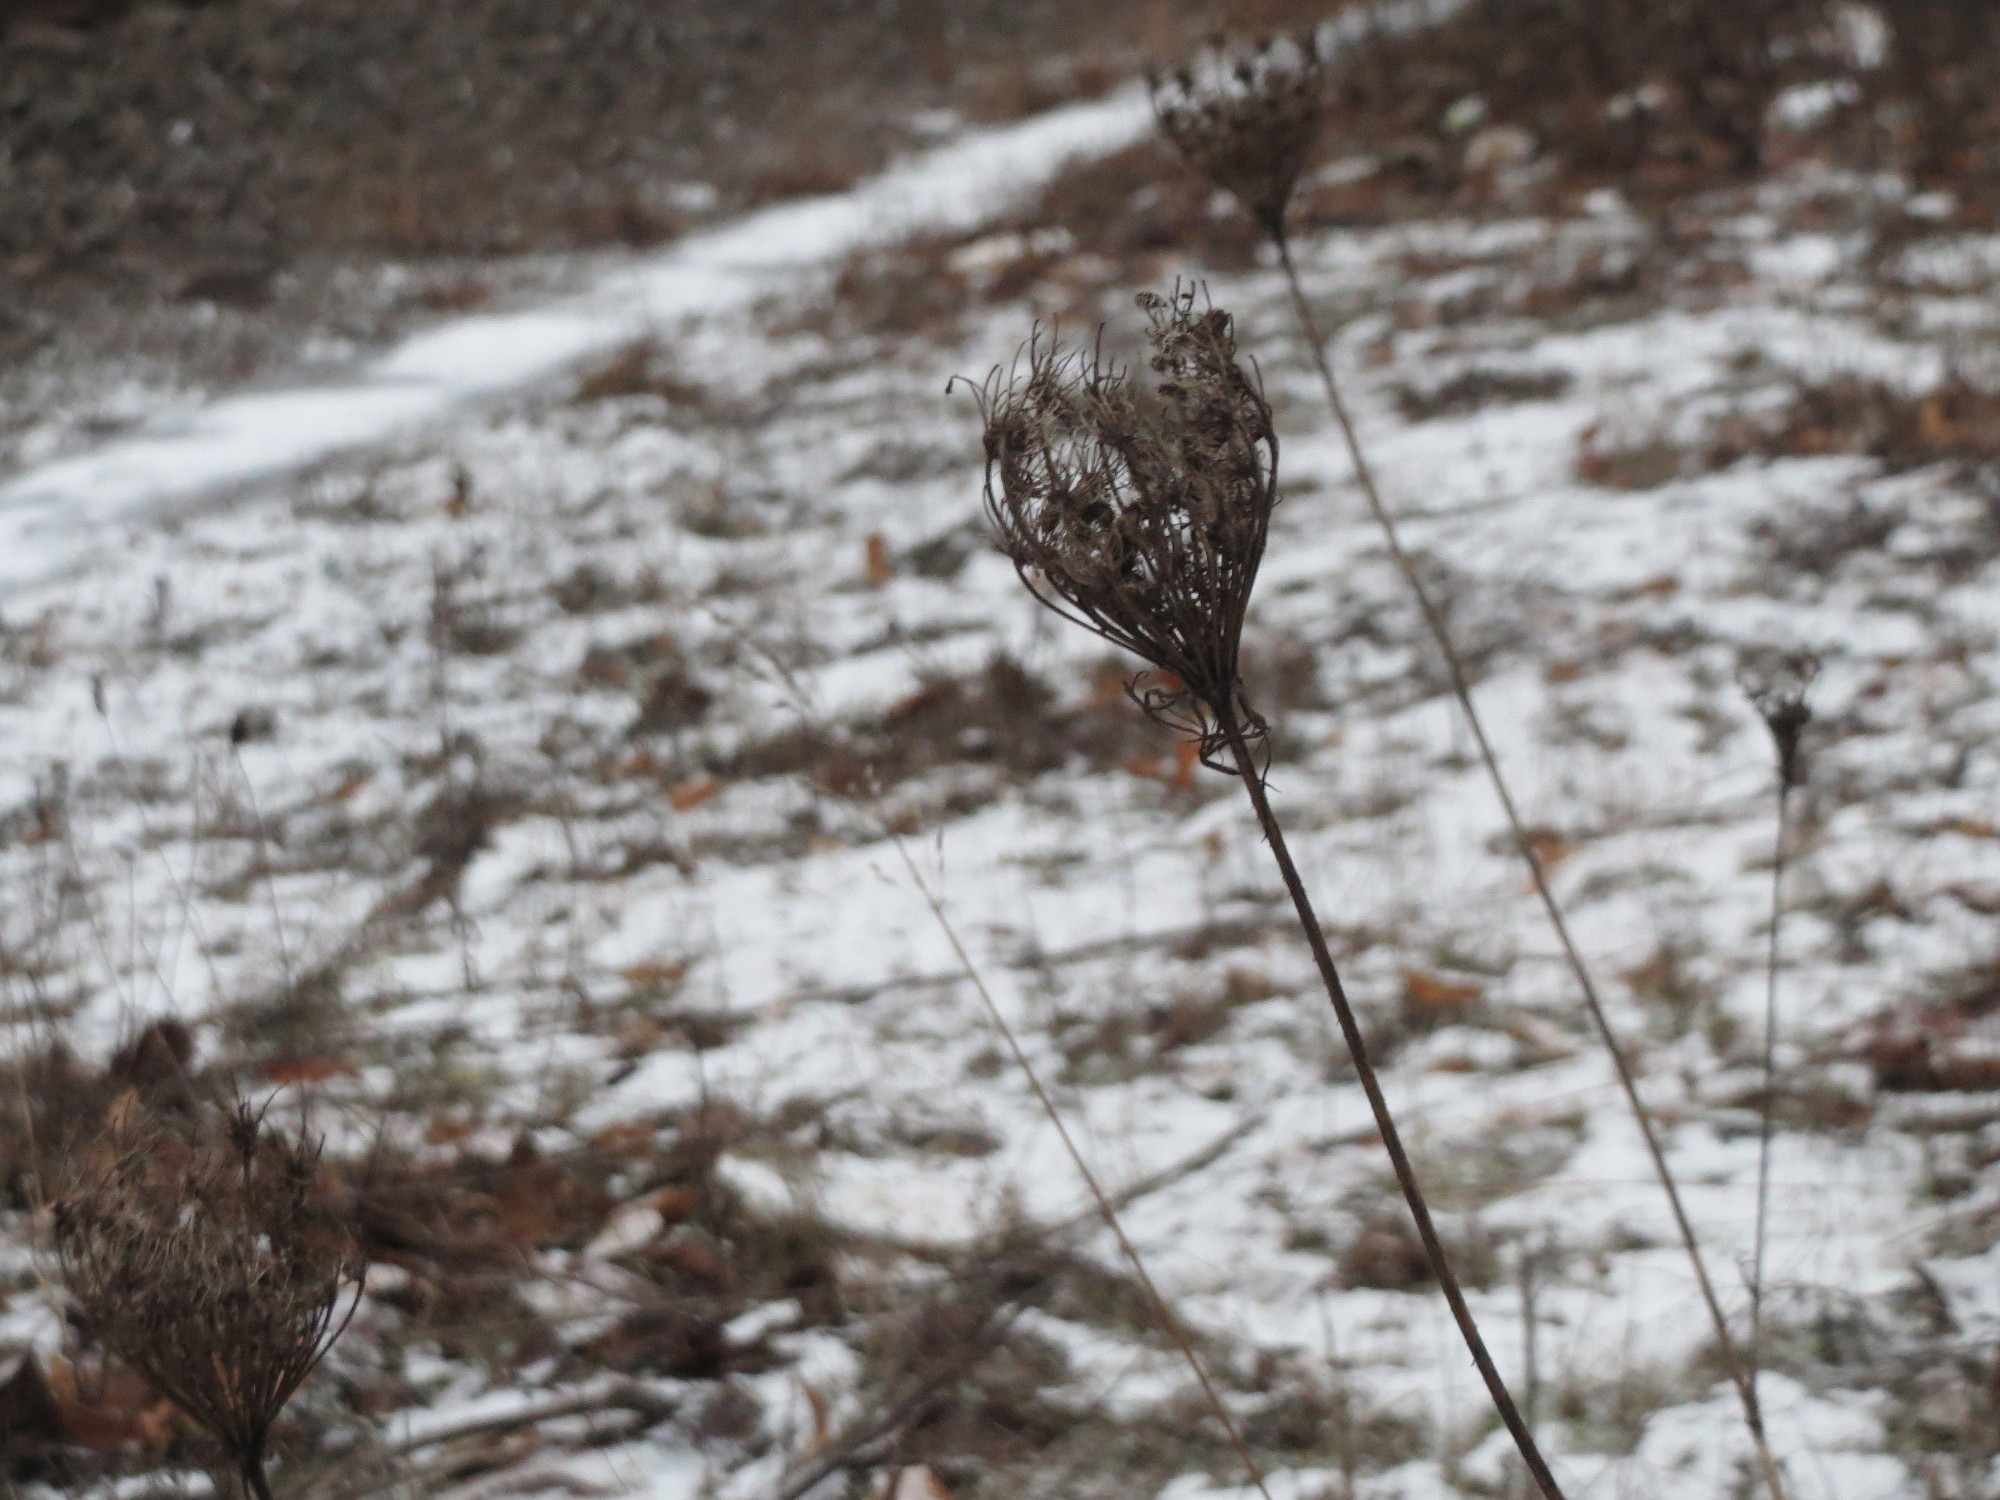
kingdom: Plantae
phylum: Tracheophyta
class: Magnoliopsida
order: Apiales
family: Apiaceae
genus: Daucus
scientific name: Daucus carota
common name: Wild carrot
